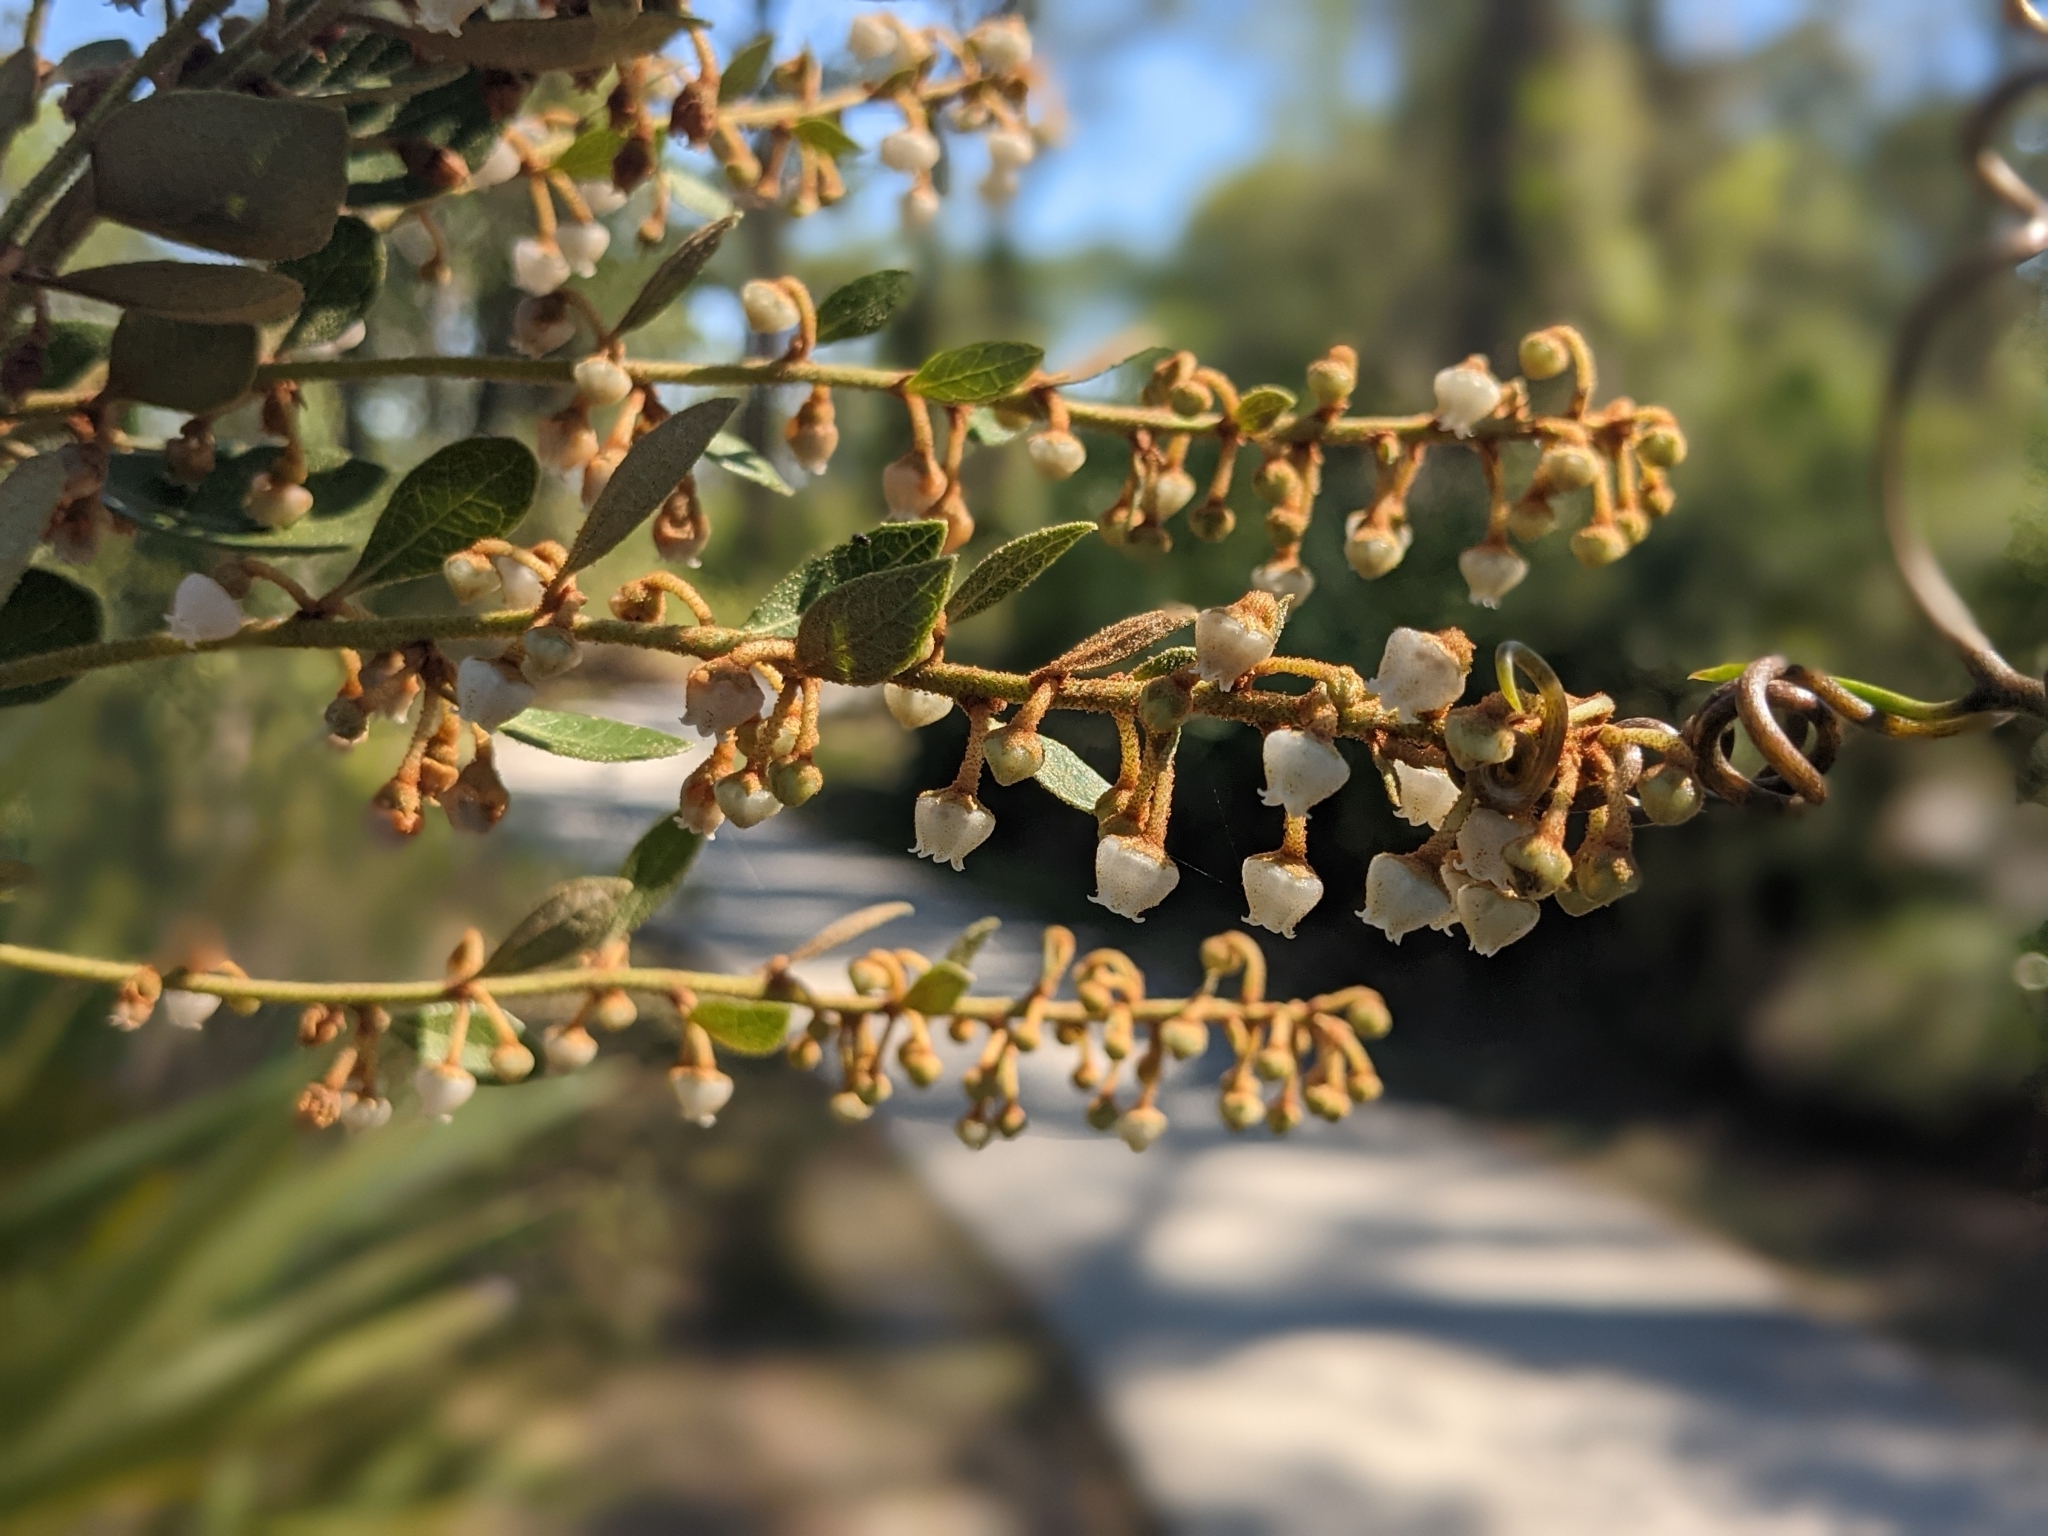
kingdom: Plantae
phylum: Tracheophyta
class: Magnoliopsida
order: Ericales
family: Ericaceae
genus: Lyonia
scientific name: Lyonia fruticosa
